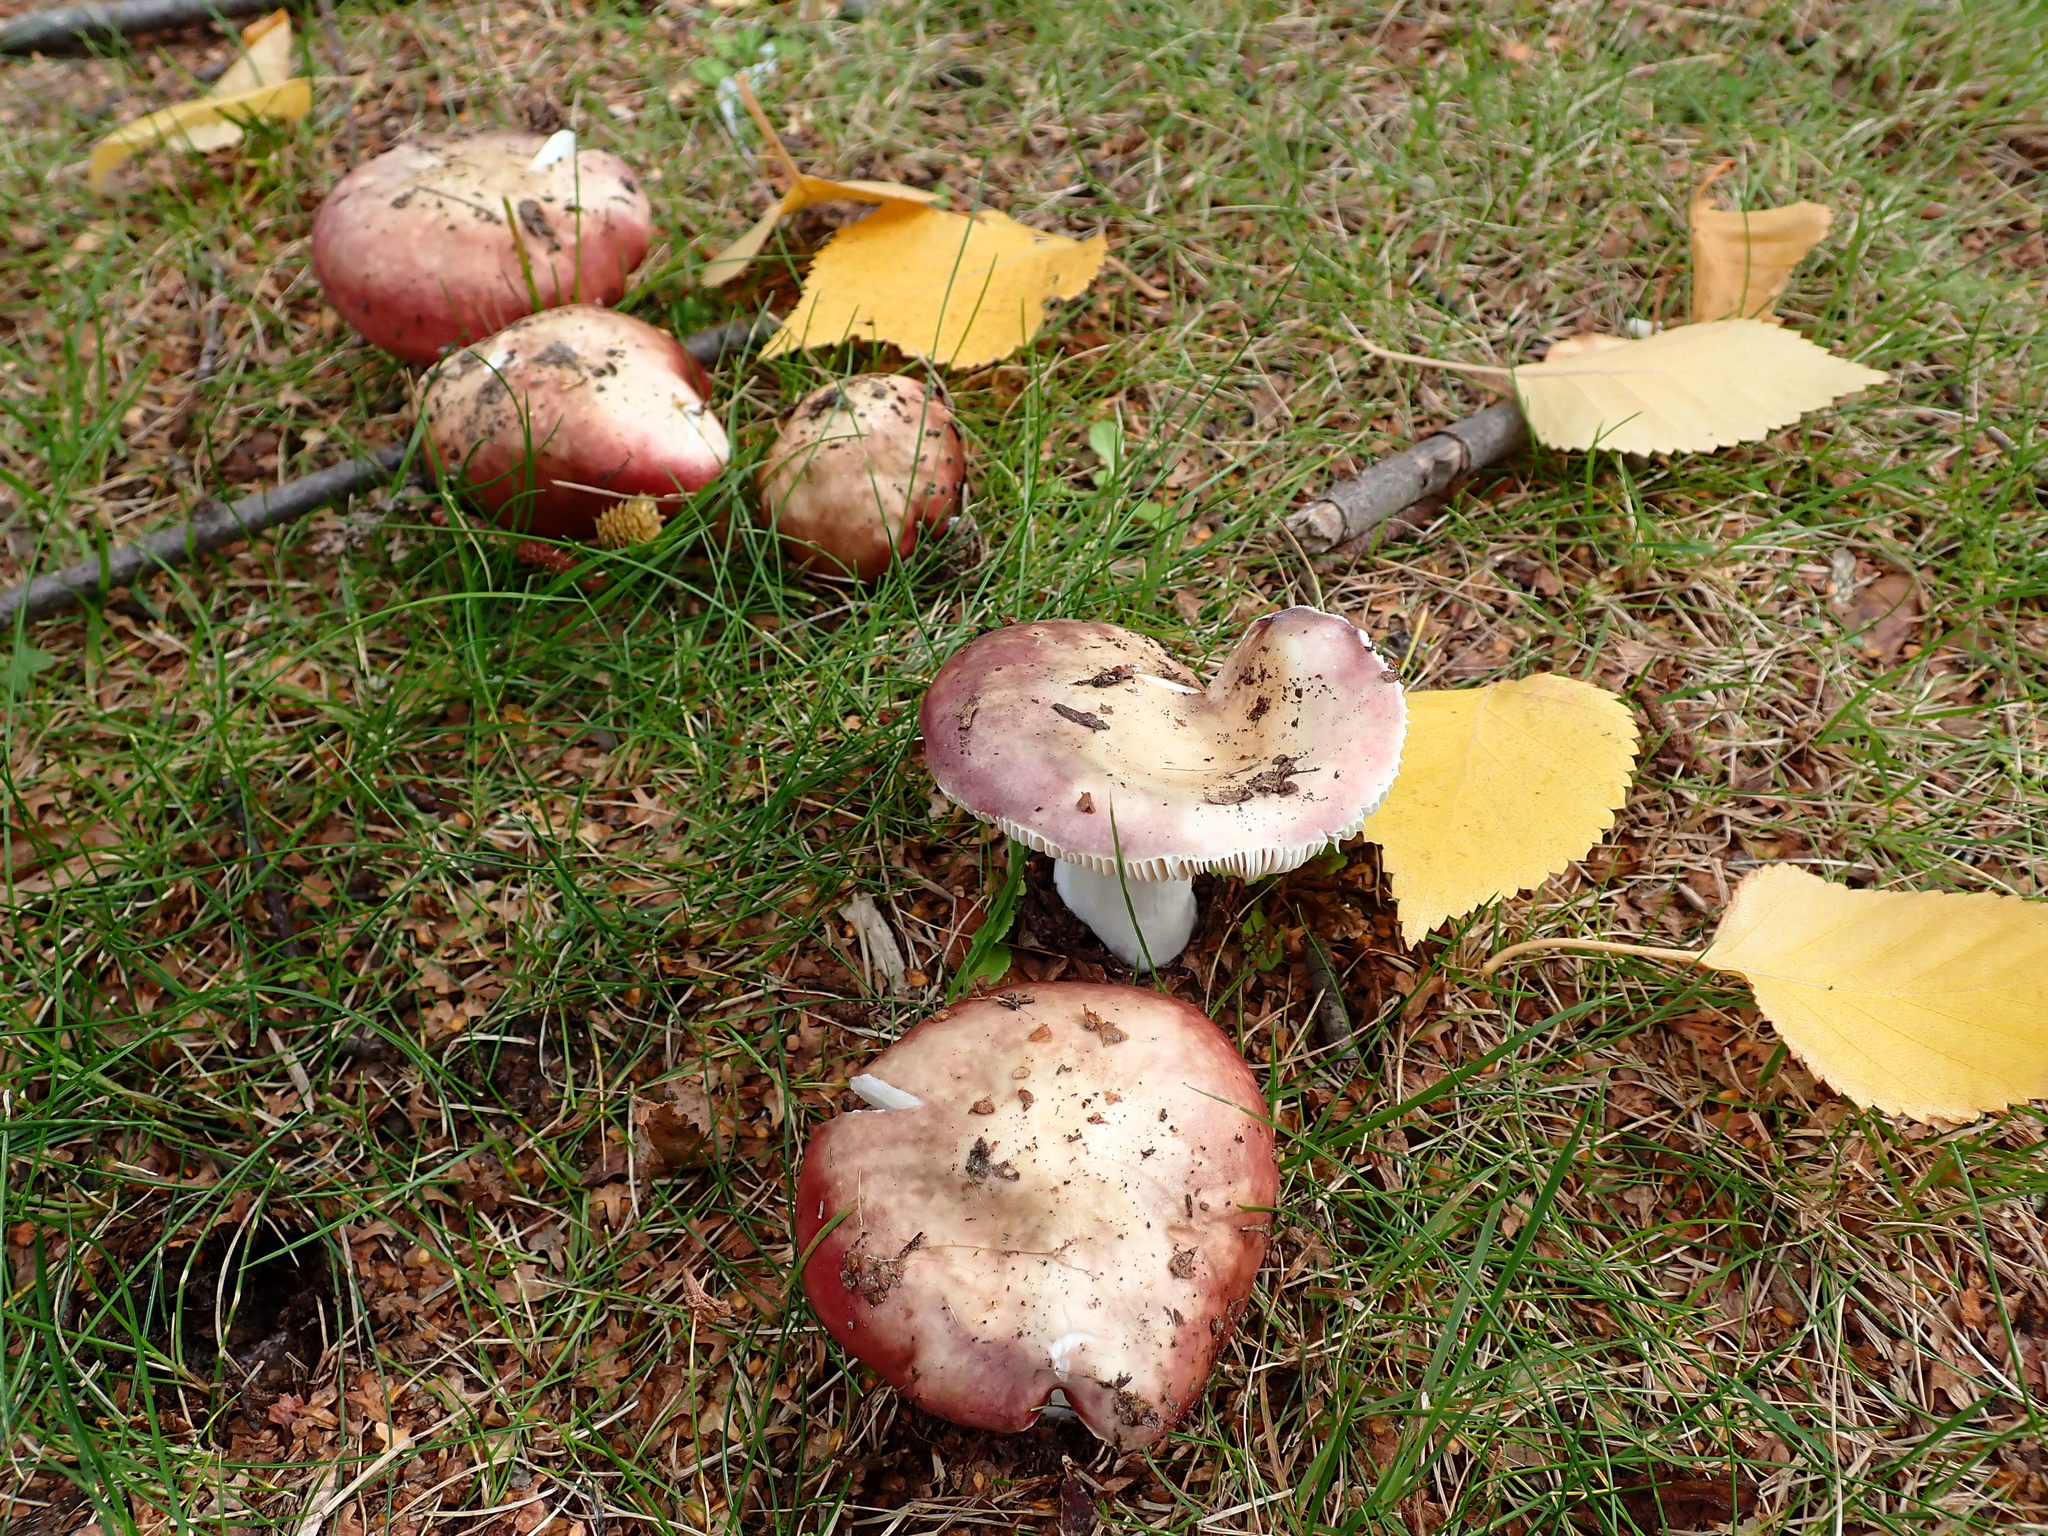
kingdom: Fungi
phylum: Basidiomycota
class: Agaricomycetes
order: Russulales
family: Russulaceae
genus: Russula
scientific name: Russula nitida
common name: Purple swamp brittlegill
